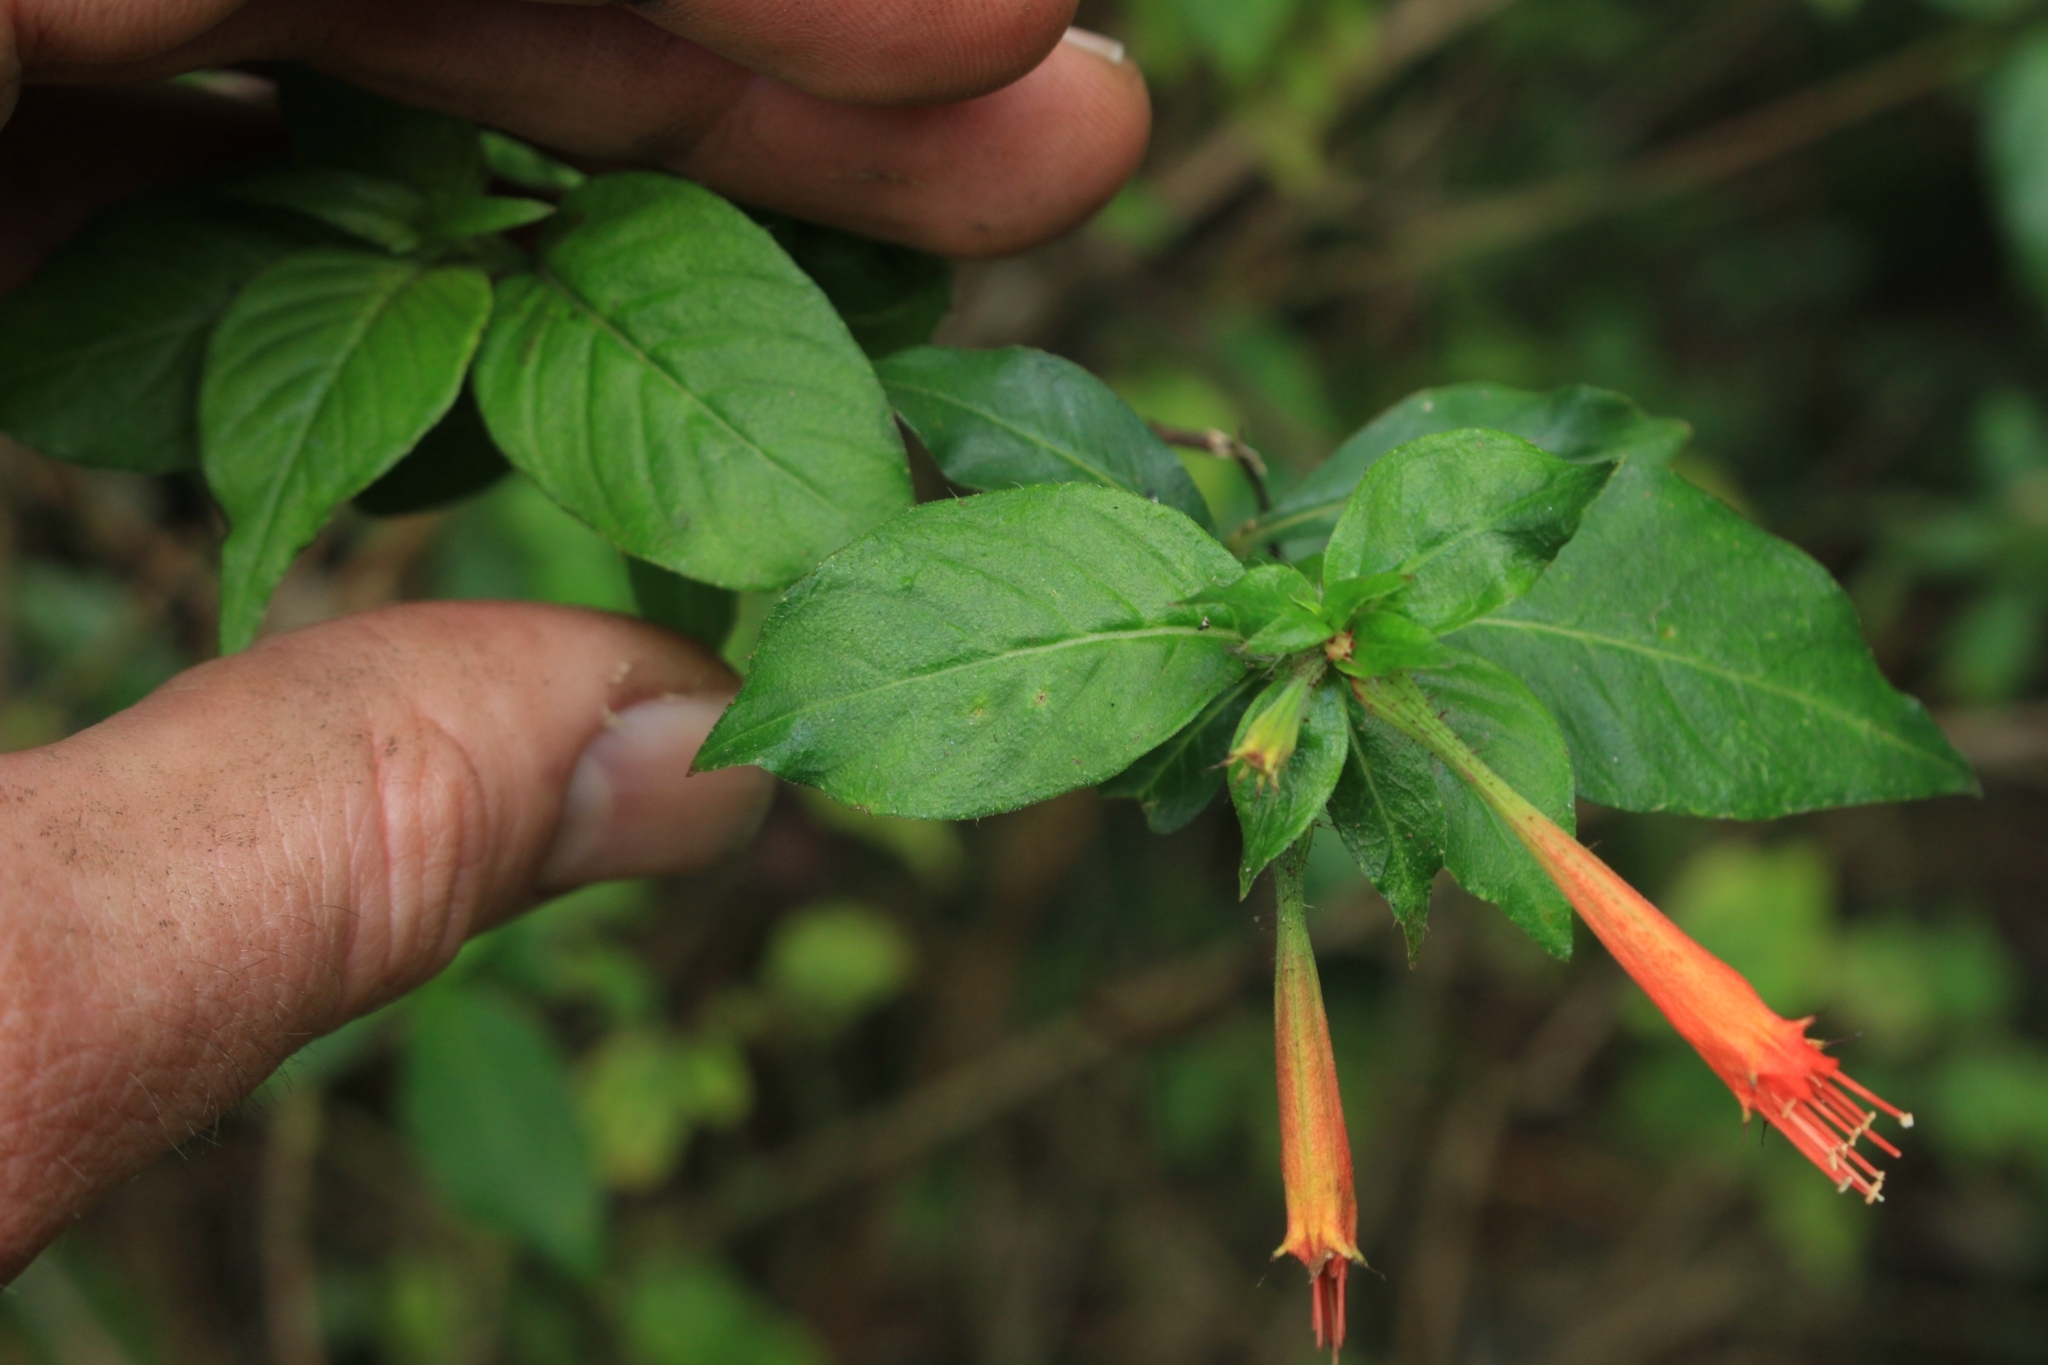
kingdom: Plantae
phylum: Tracheophyta
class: Magnoliopsida
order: Myrtales
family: Lythraceae
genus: Cuphea
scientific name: Cuphea appendiculata
